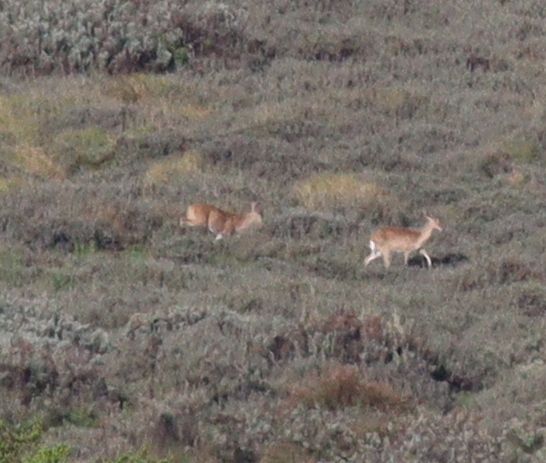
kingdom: Animalia
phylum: Chordata
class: Mammalia
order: Artiodactyla
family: Bovidae
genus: Redunca
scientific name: Redunca redunca
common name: Common reedbuck
